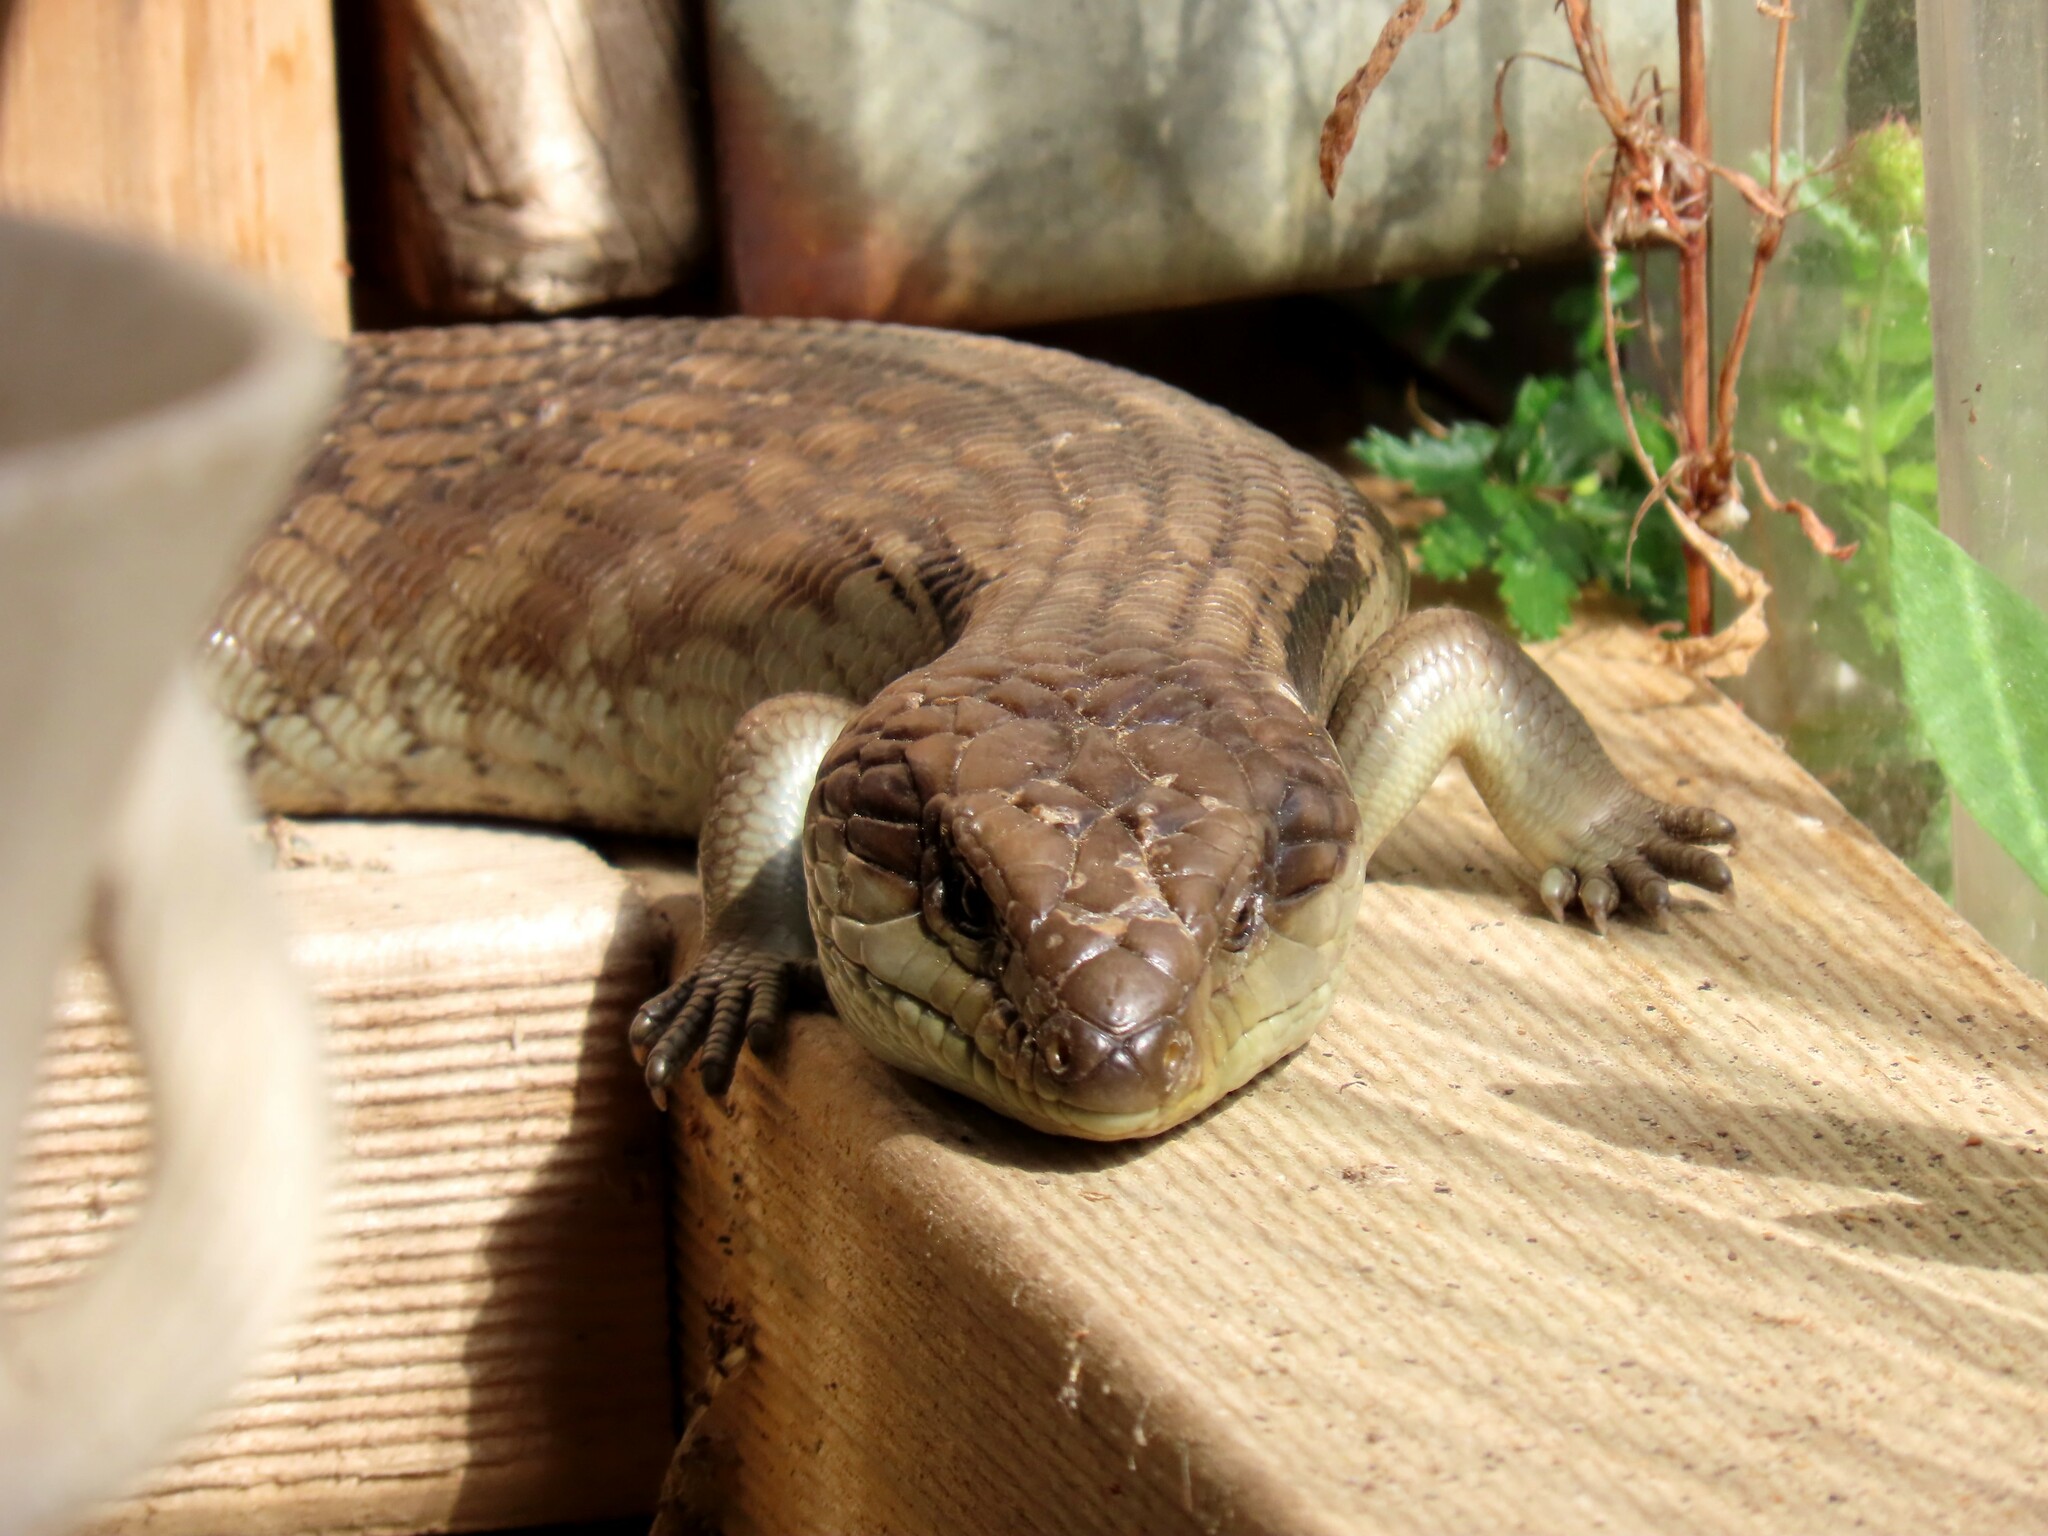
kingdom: Animalia
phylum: Chordata
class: Squamata
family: Scincidae
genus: Tiliqua
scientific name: Tiliqua scincoides
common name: Common bluetongue
